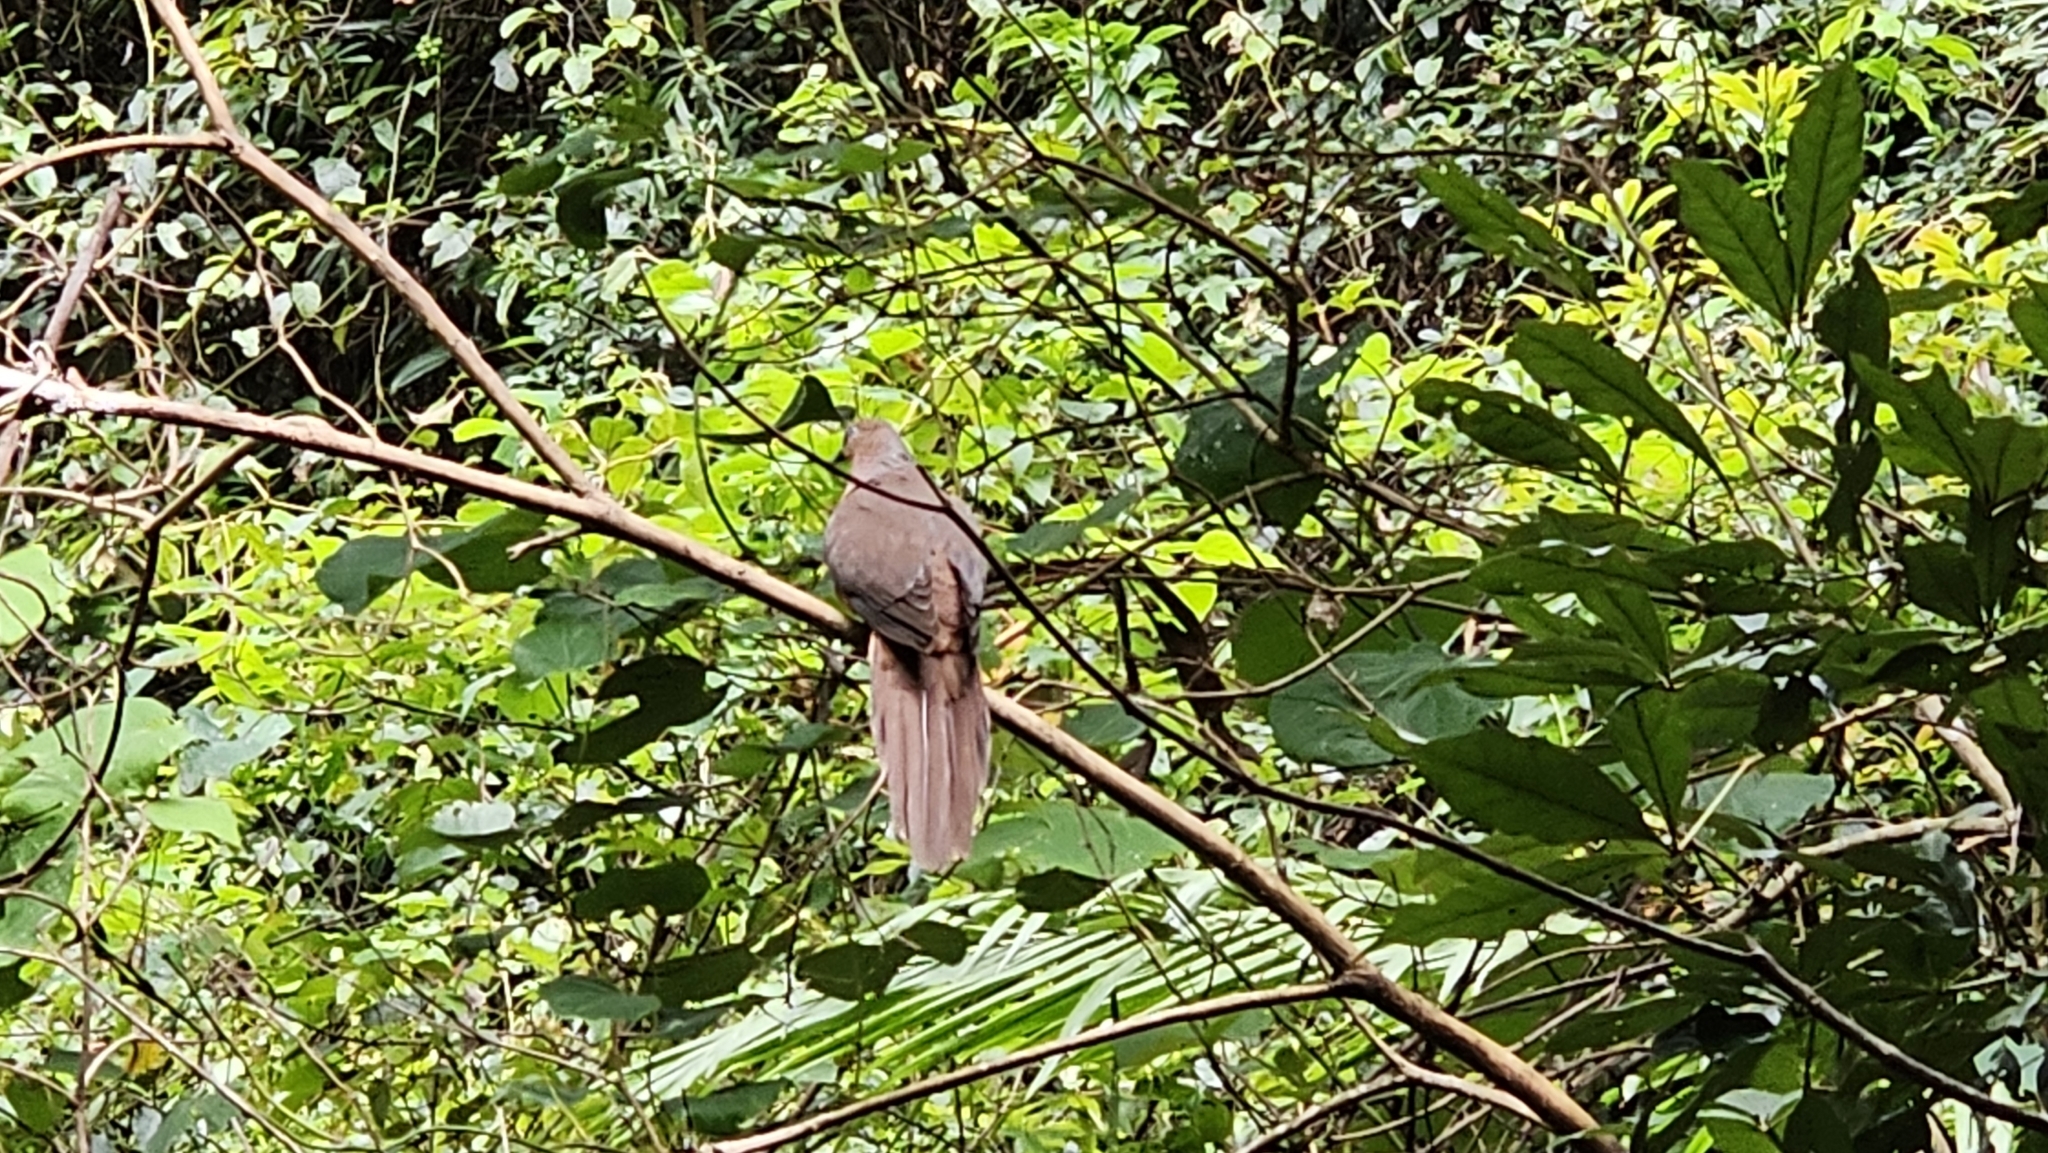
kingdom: Animalia
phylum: Chordata
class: Aves
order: Columbiformes
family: Columbidae
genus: Macropygia
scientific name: Macropygia phasianella
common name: Brown cuckoo-dove
